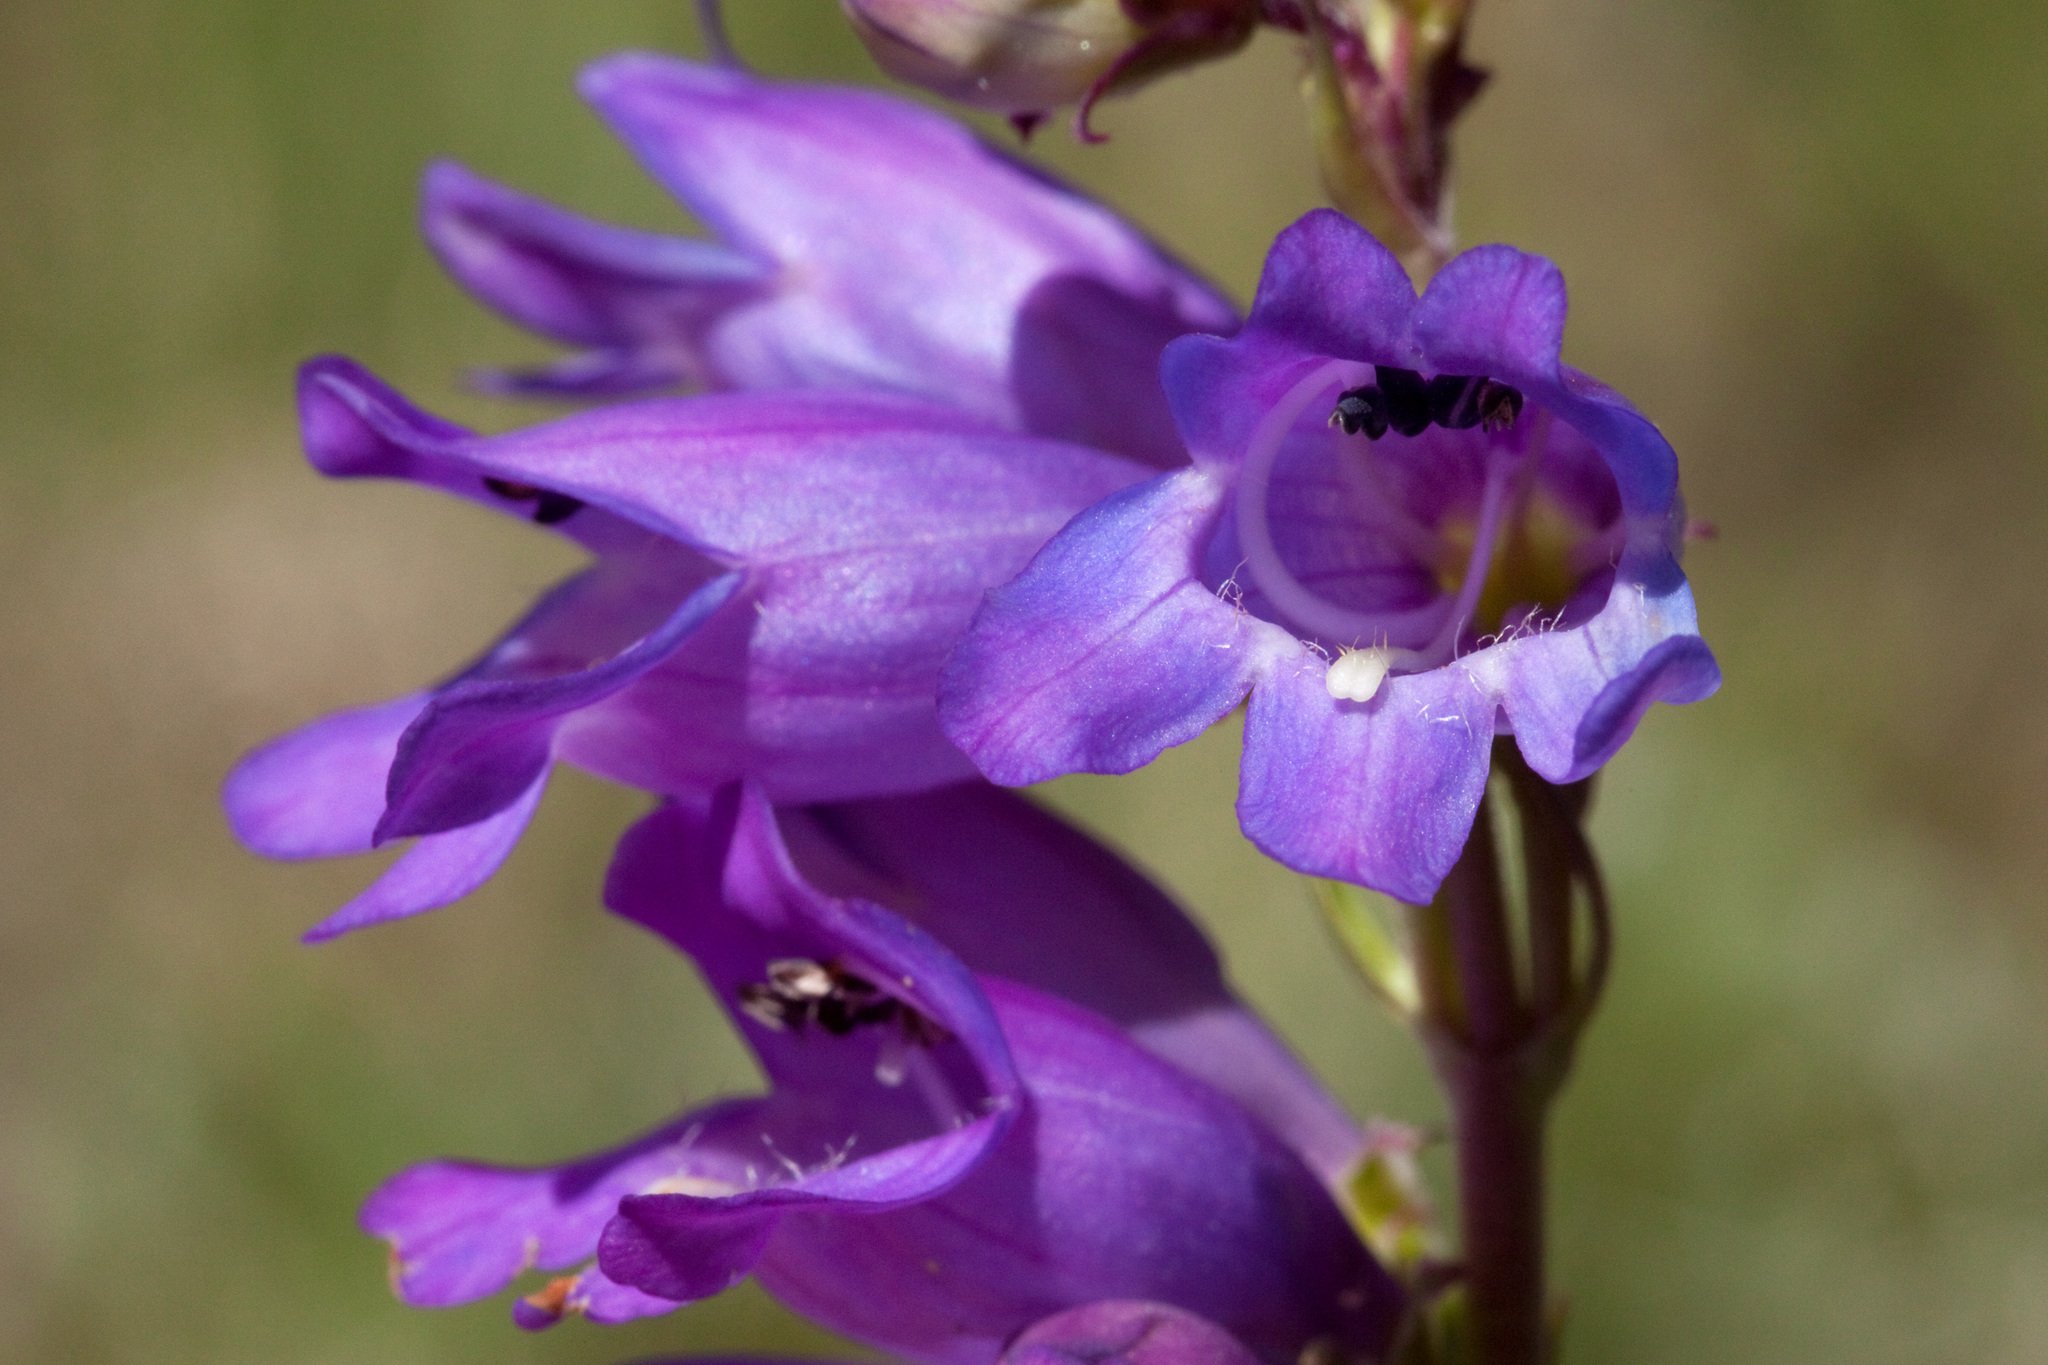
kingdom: Plantae
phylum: Tracheophyta
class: Magnoliopsida
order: Lamiales
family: Plantaginaceae
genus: Penstemon
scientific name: Penstemon deaveri
